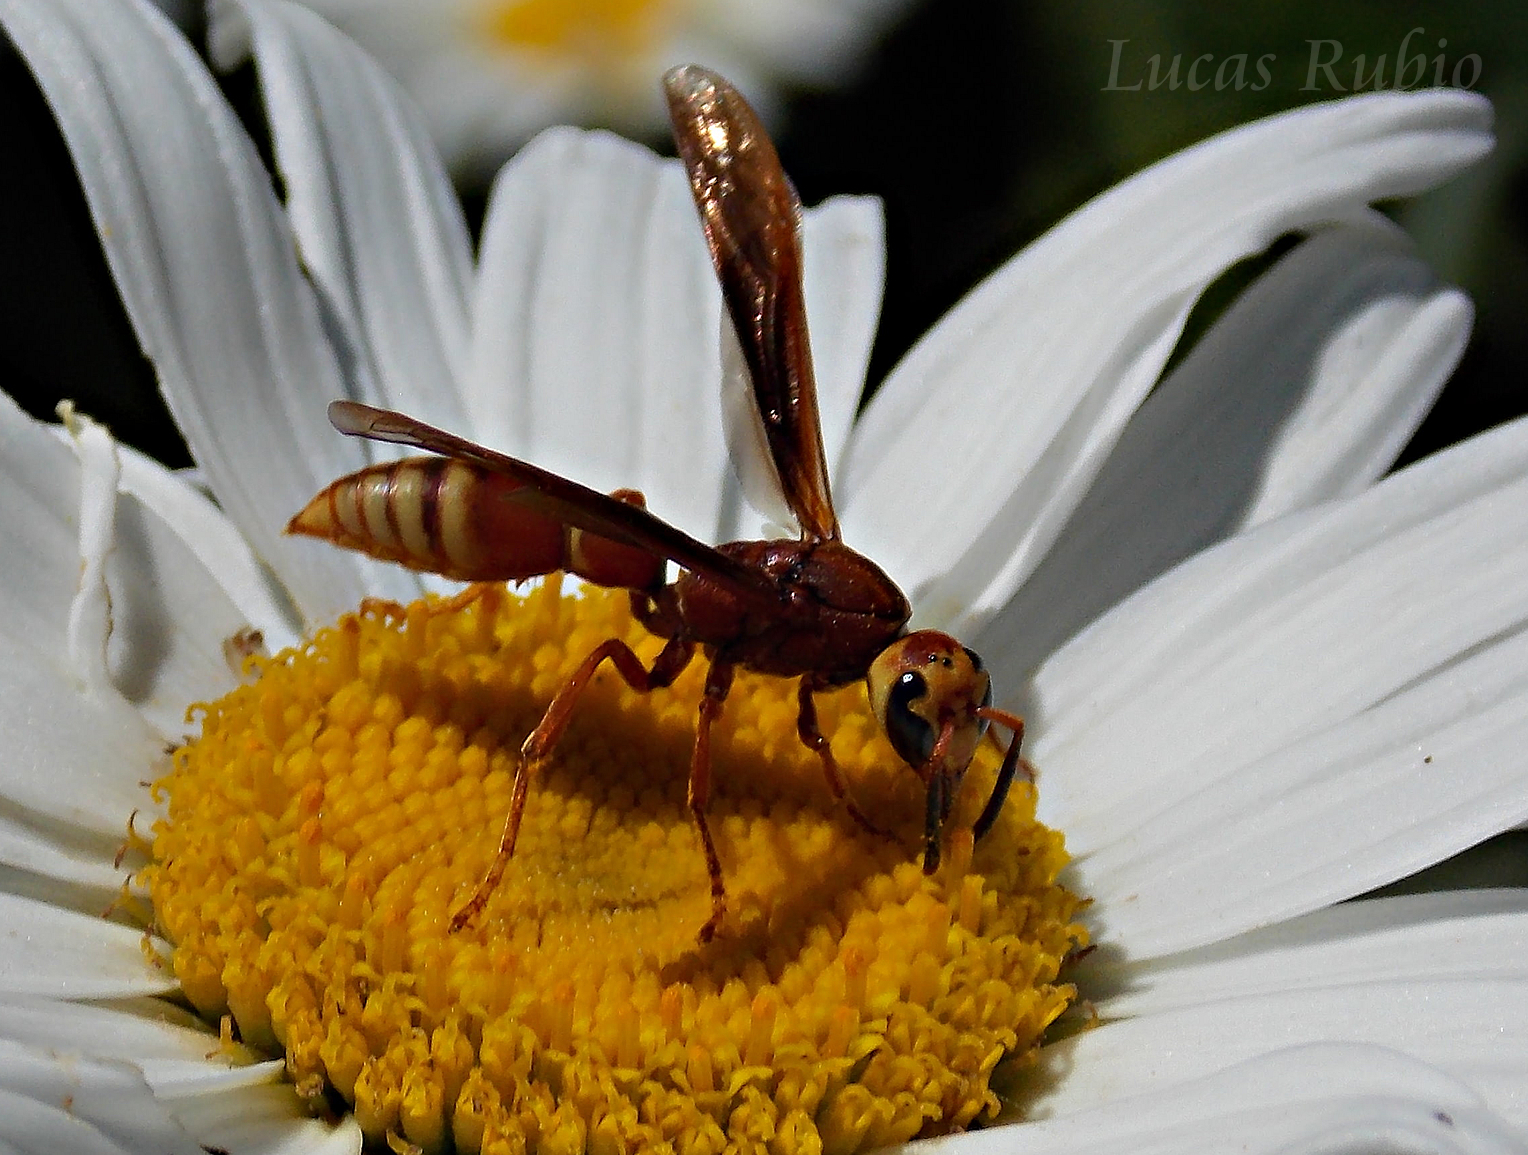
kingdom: Animalia
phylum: Arthropoda
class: Insecta
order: Hymenoptera
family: Eumenidae
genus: Montezumia
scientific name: Montezumia ferruginea
